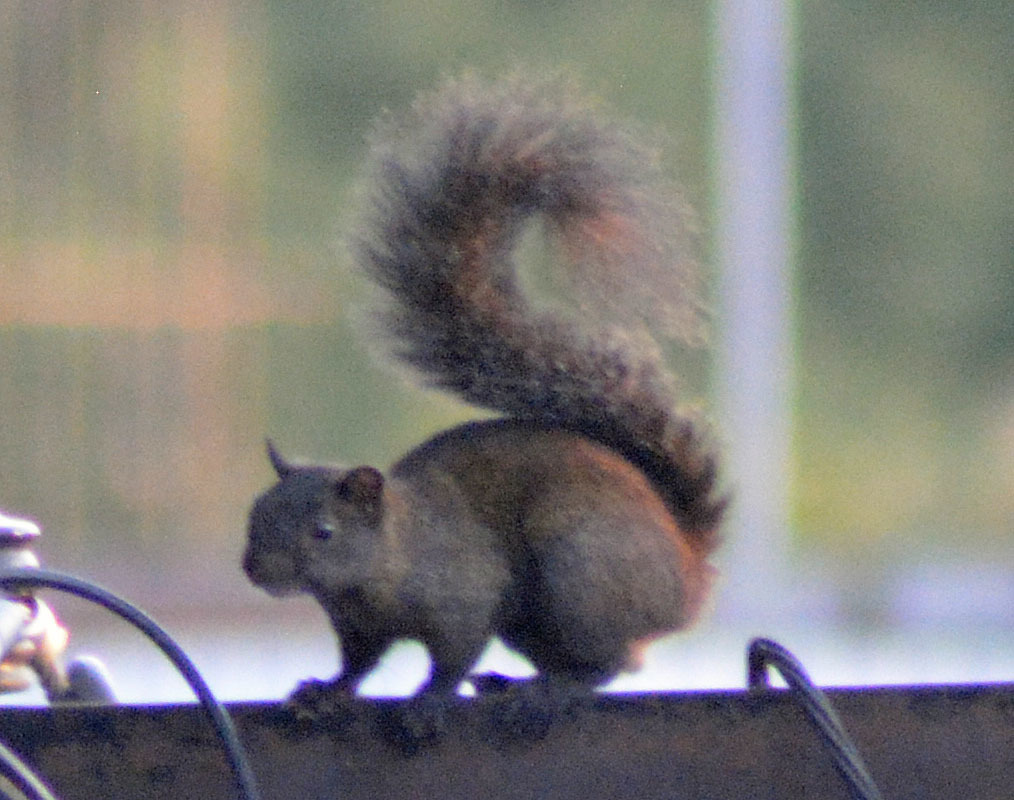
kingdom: Animalia
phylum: Chordata
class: Mammalia
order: Rodentia
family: Sciuridae
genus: Sciurus
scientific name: Sciurus aureogaster
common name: Red-bellied squirrel
